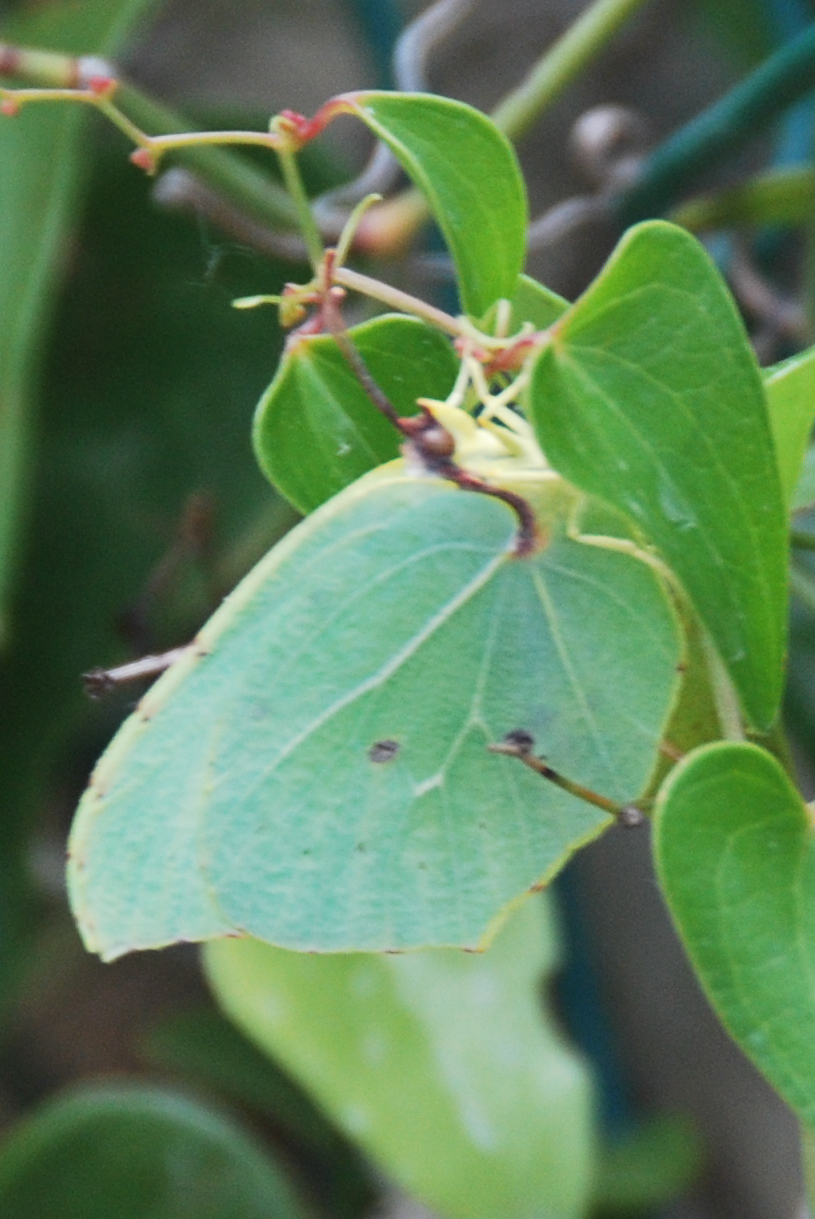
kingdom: Animalia
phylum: Arthropoda
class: Insecta
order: Lepidoptera
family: Pieridae
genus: Gonepteryx
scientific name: Gonepteryx cleopatra
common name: Cleopatra
